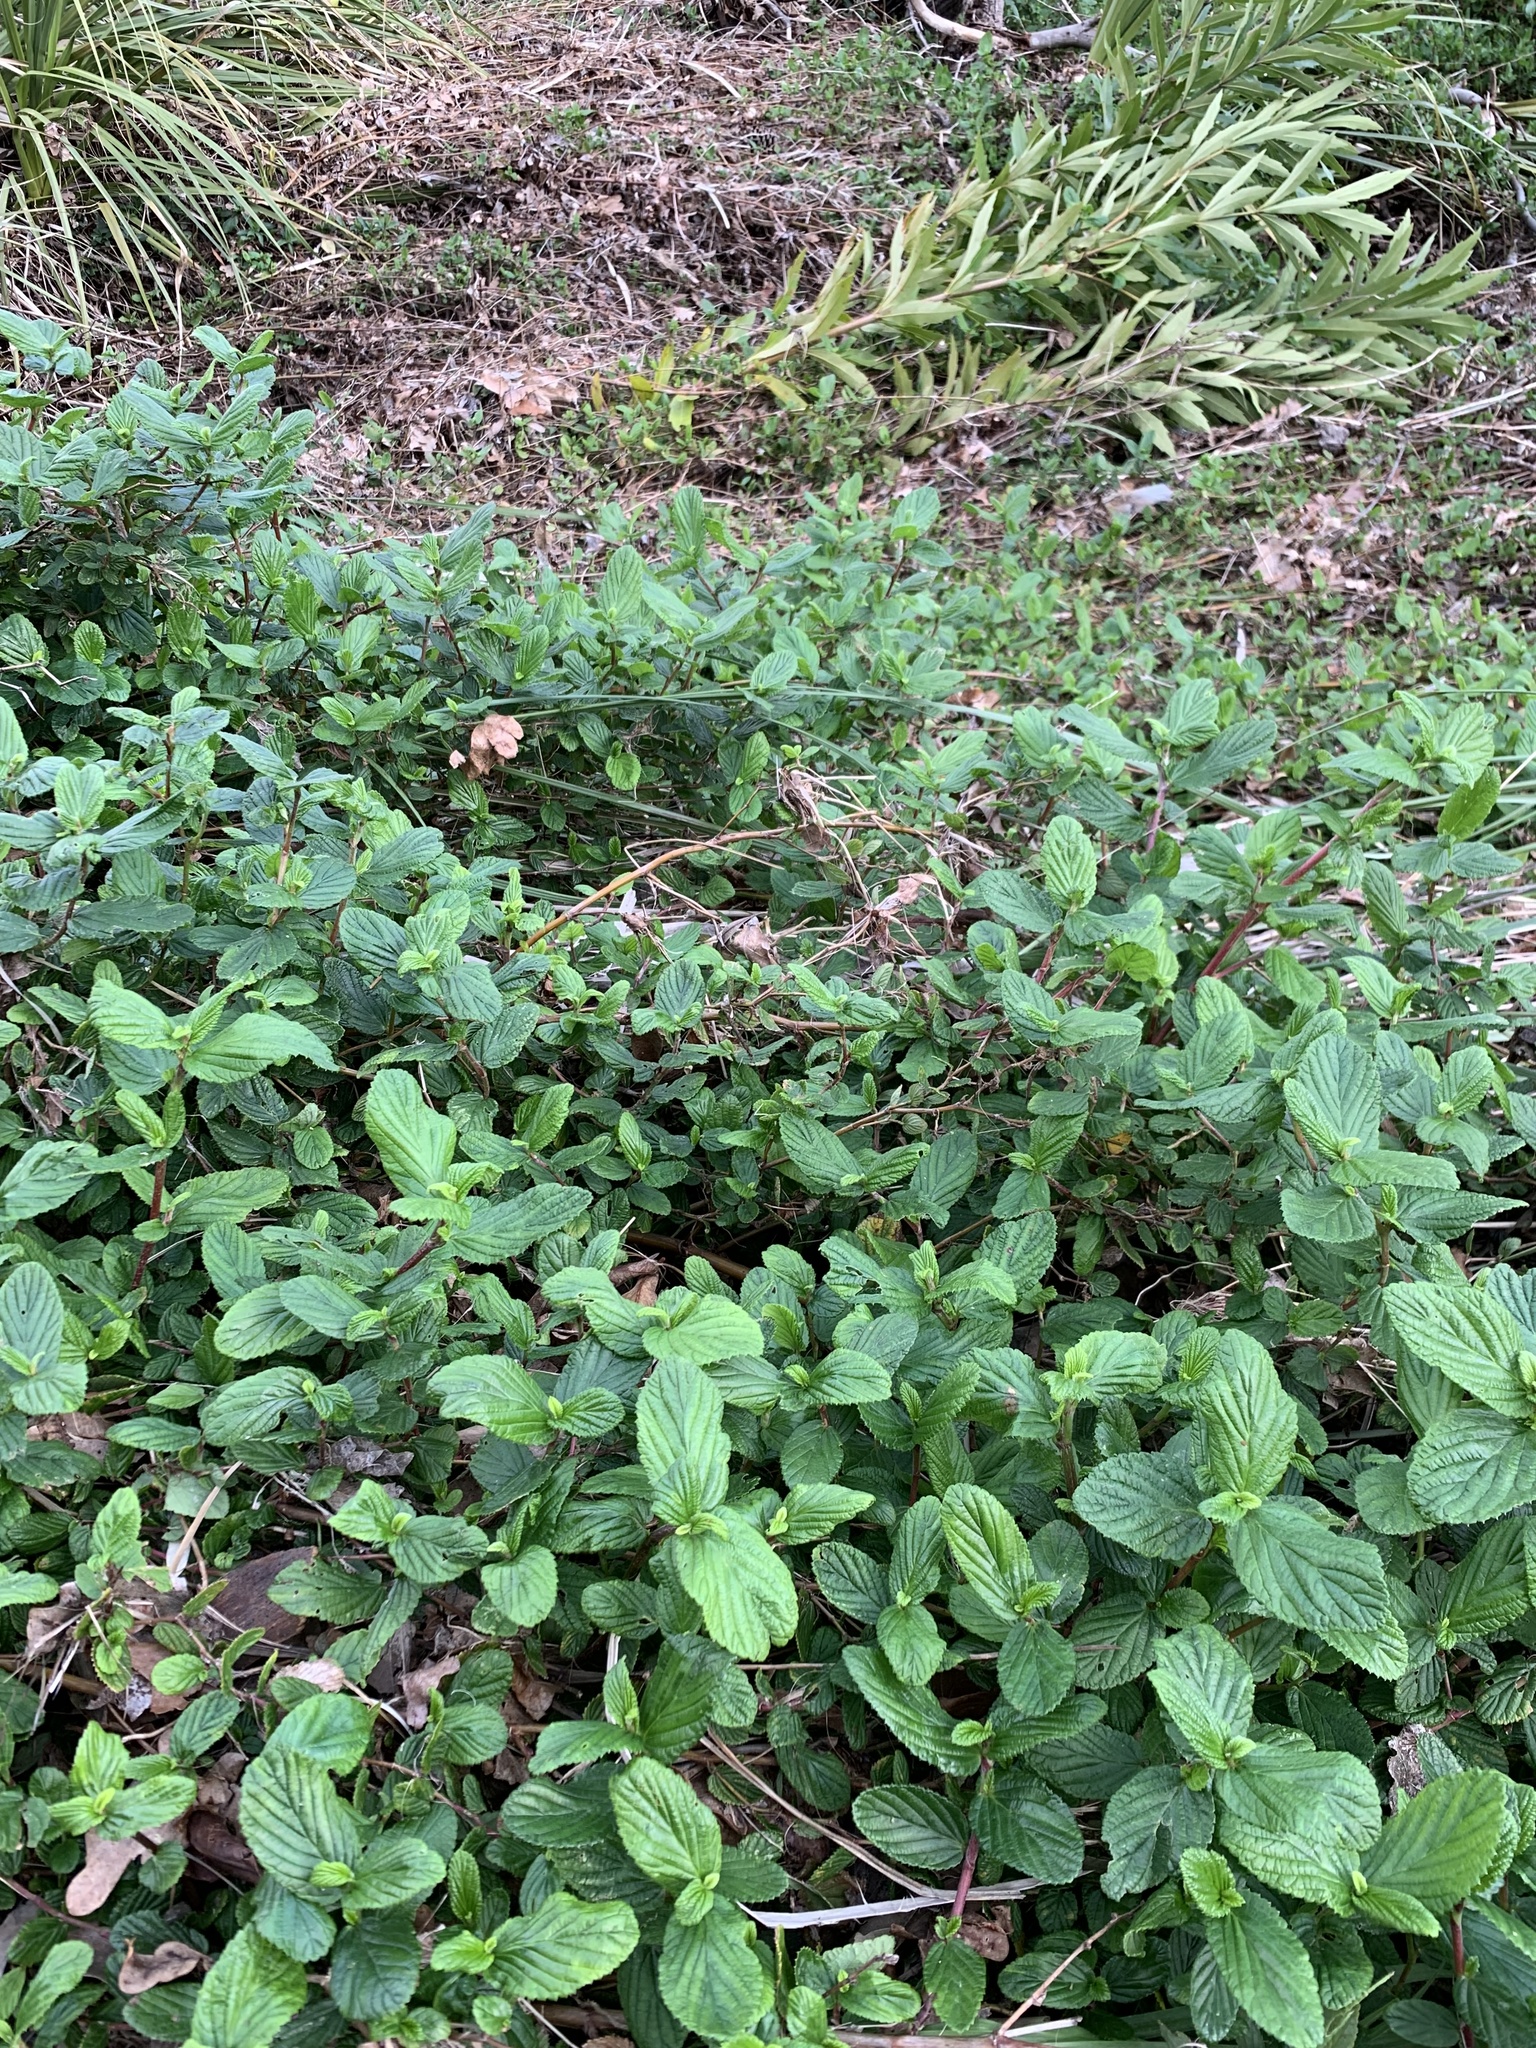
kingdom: Plantae
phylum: Tracheophyta
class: Magnoliopsida
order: Rosales
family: Rosaceae
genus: Cliffortia
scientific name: Cliffortia odorata
